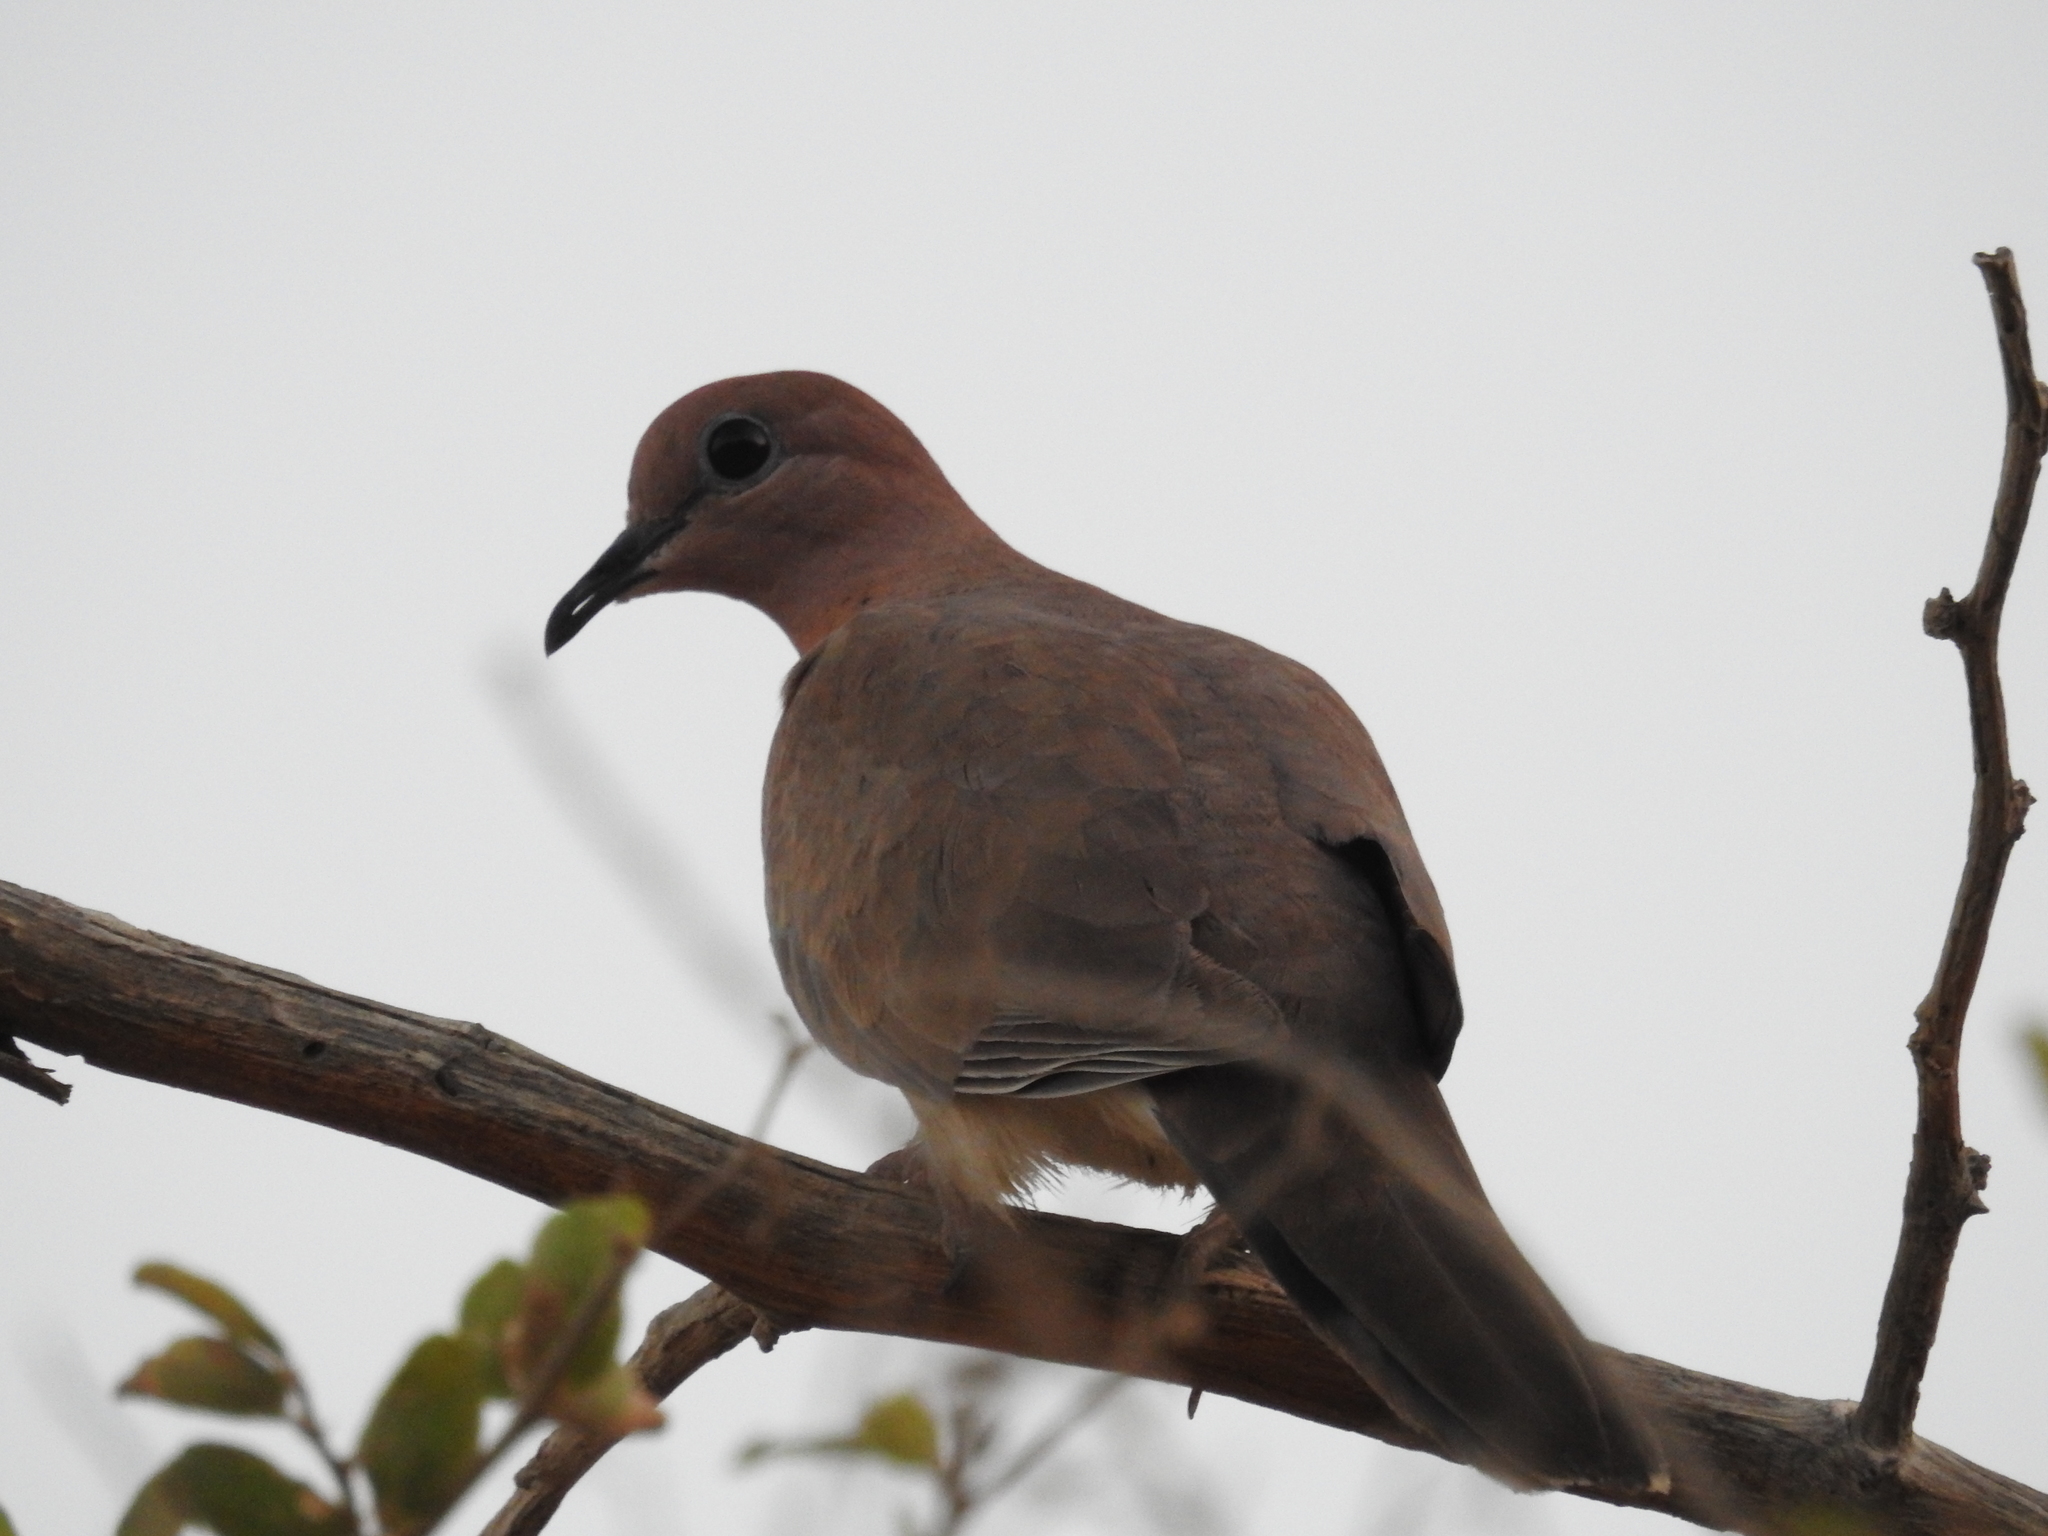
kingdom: Animalia
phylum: Chordata
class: Aves
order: Columbiformes
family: Columbidae
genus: Spilopelia
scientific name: Spilopelia senegalensis
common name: Laughing dove
